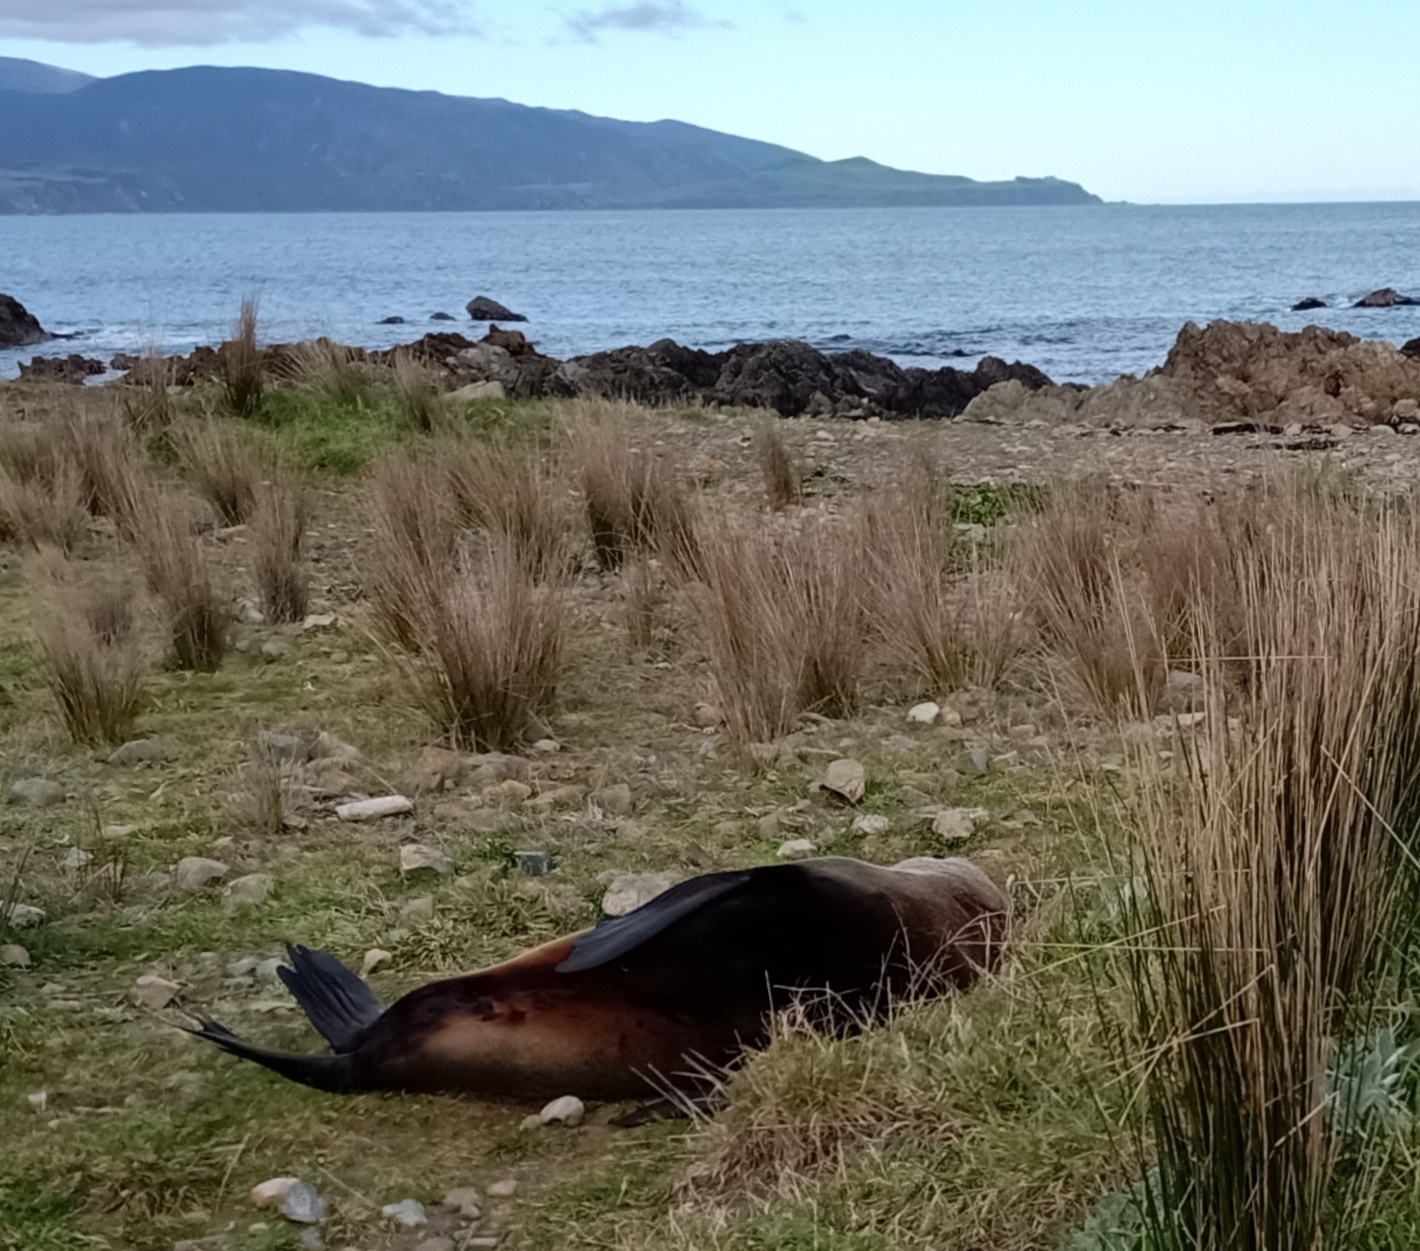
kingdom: Animalia
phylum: Chordata
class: Mammalia
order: Carnivora
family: Otariidae
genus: Phocarctos
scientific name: Phocarctos hookeri
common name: New zealand sea lion
